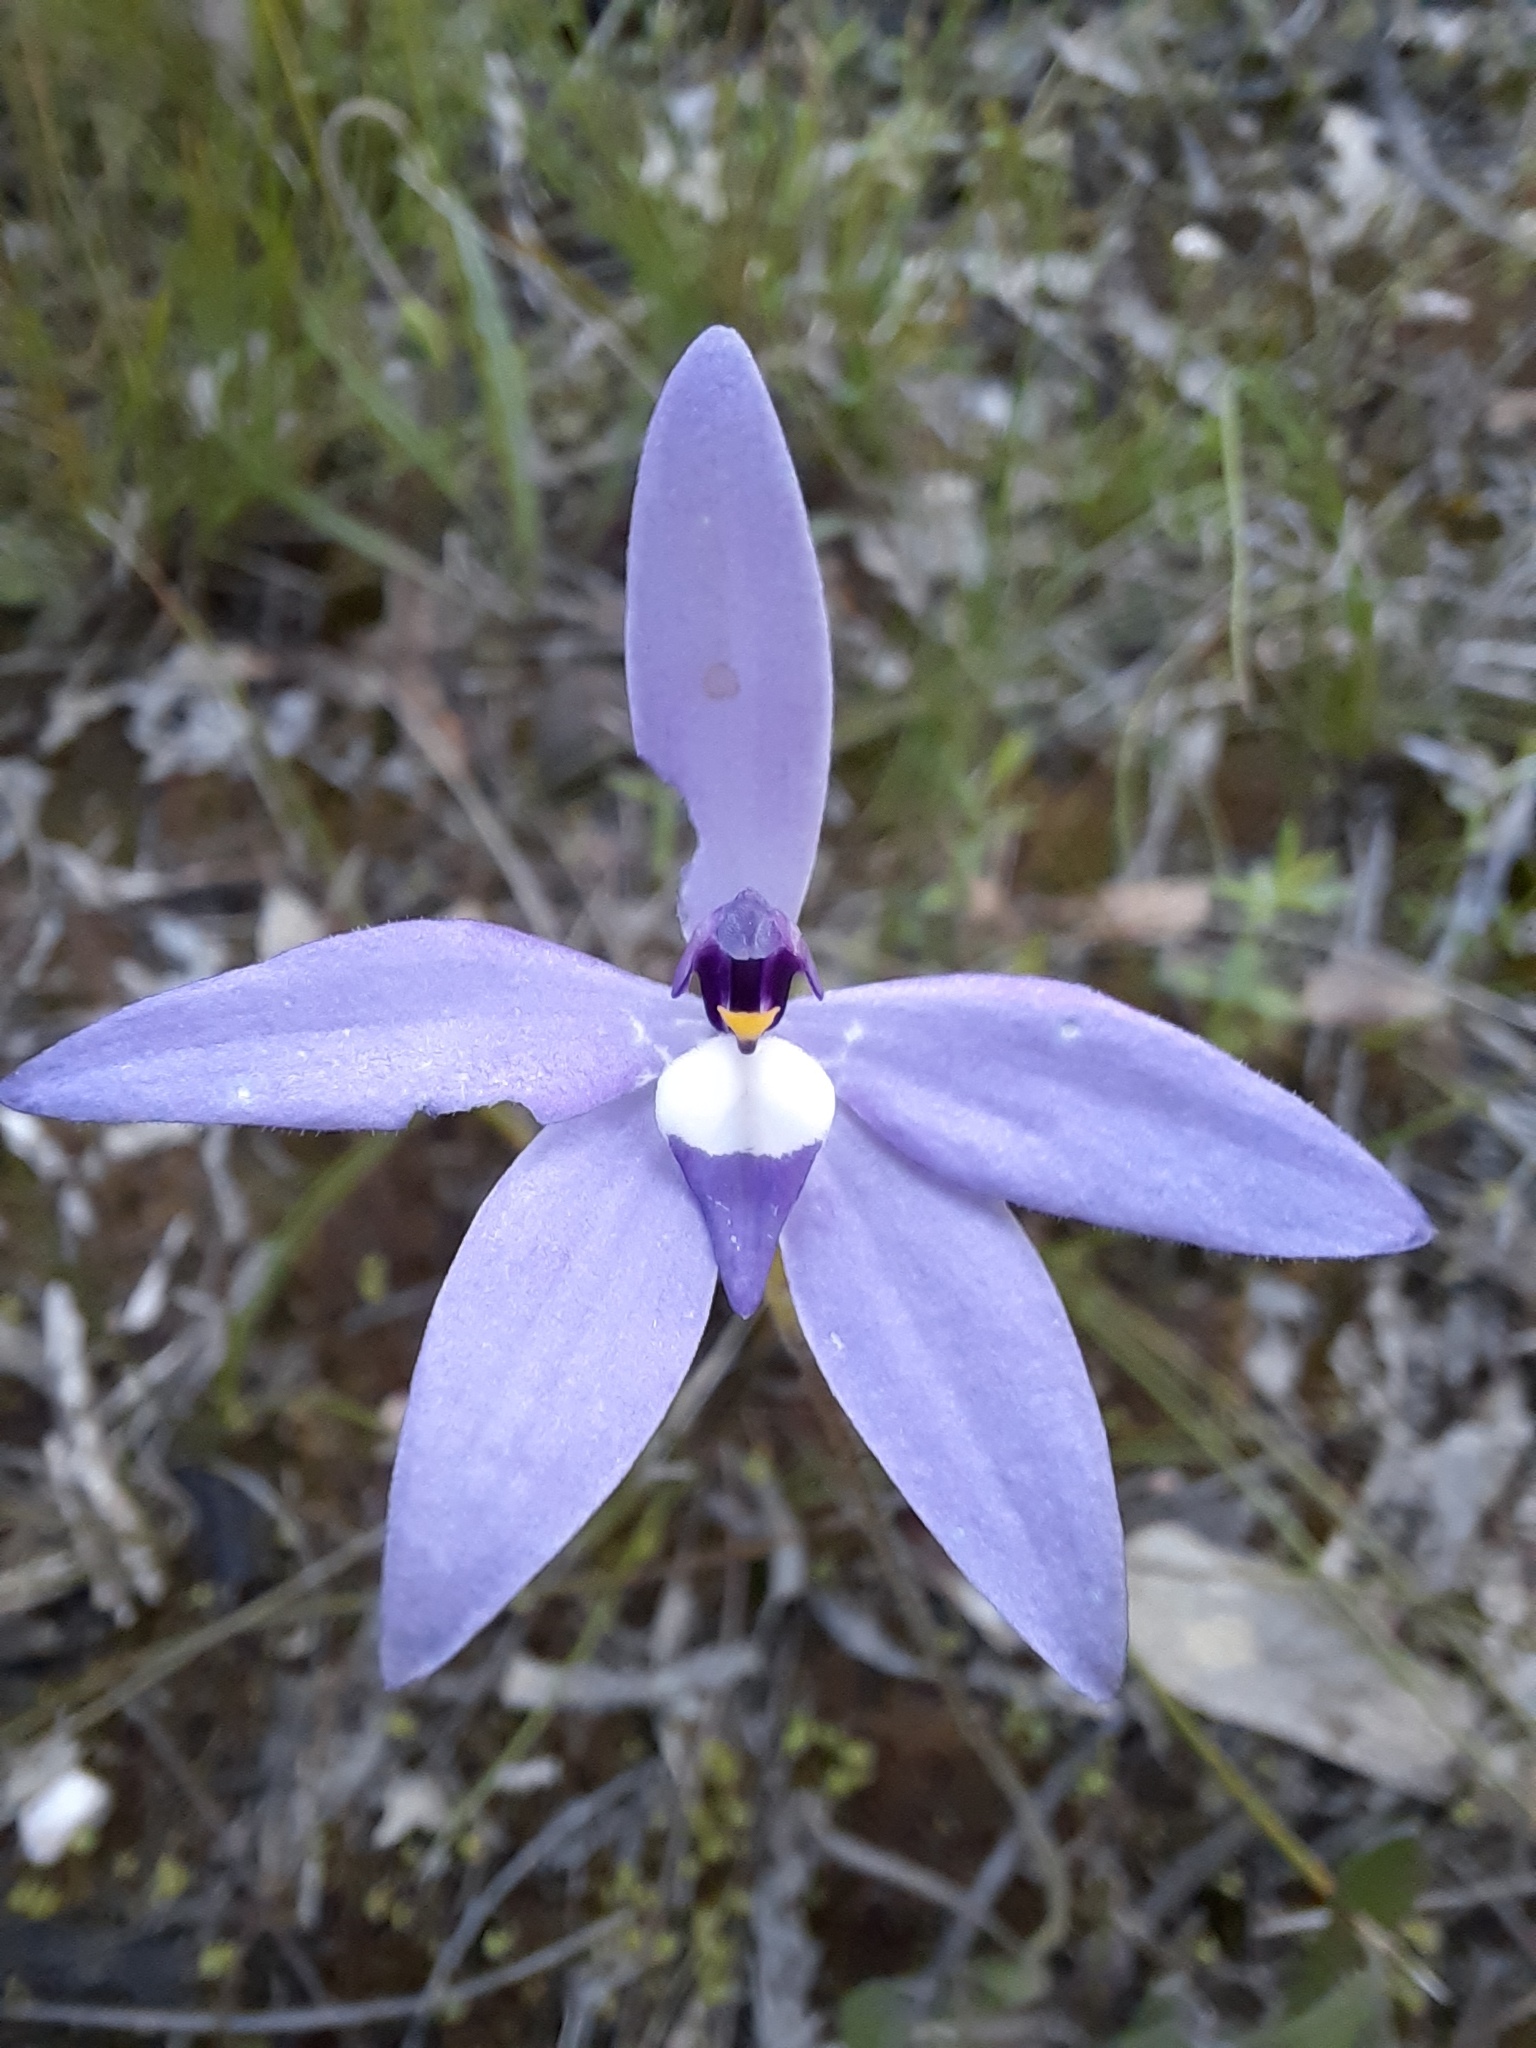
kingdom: Plantae
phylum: Tracheophyta
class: Liliopsida
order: Asparagales
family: Orchidaceae
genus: Caladenia
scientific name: Caladenia major
